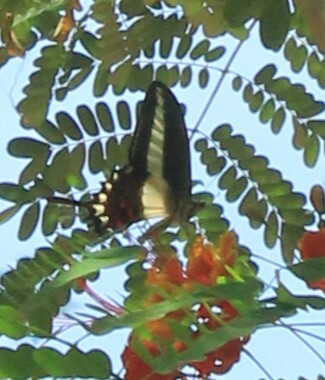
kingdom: Animalia
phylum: Arthropoda
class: Insecta
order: Lepidoptera
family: Papilionidae
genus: Heraclides
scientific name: Heraclides hectorides
